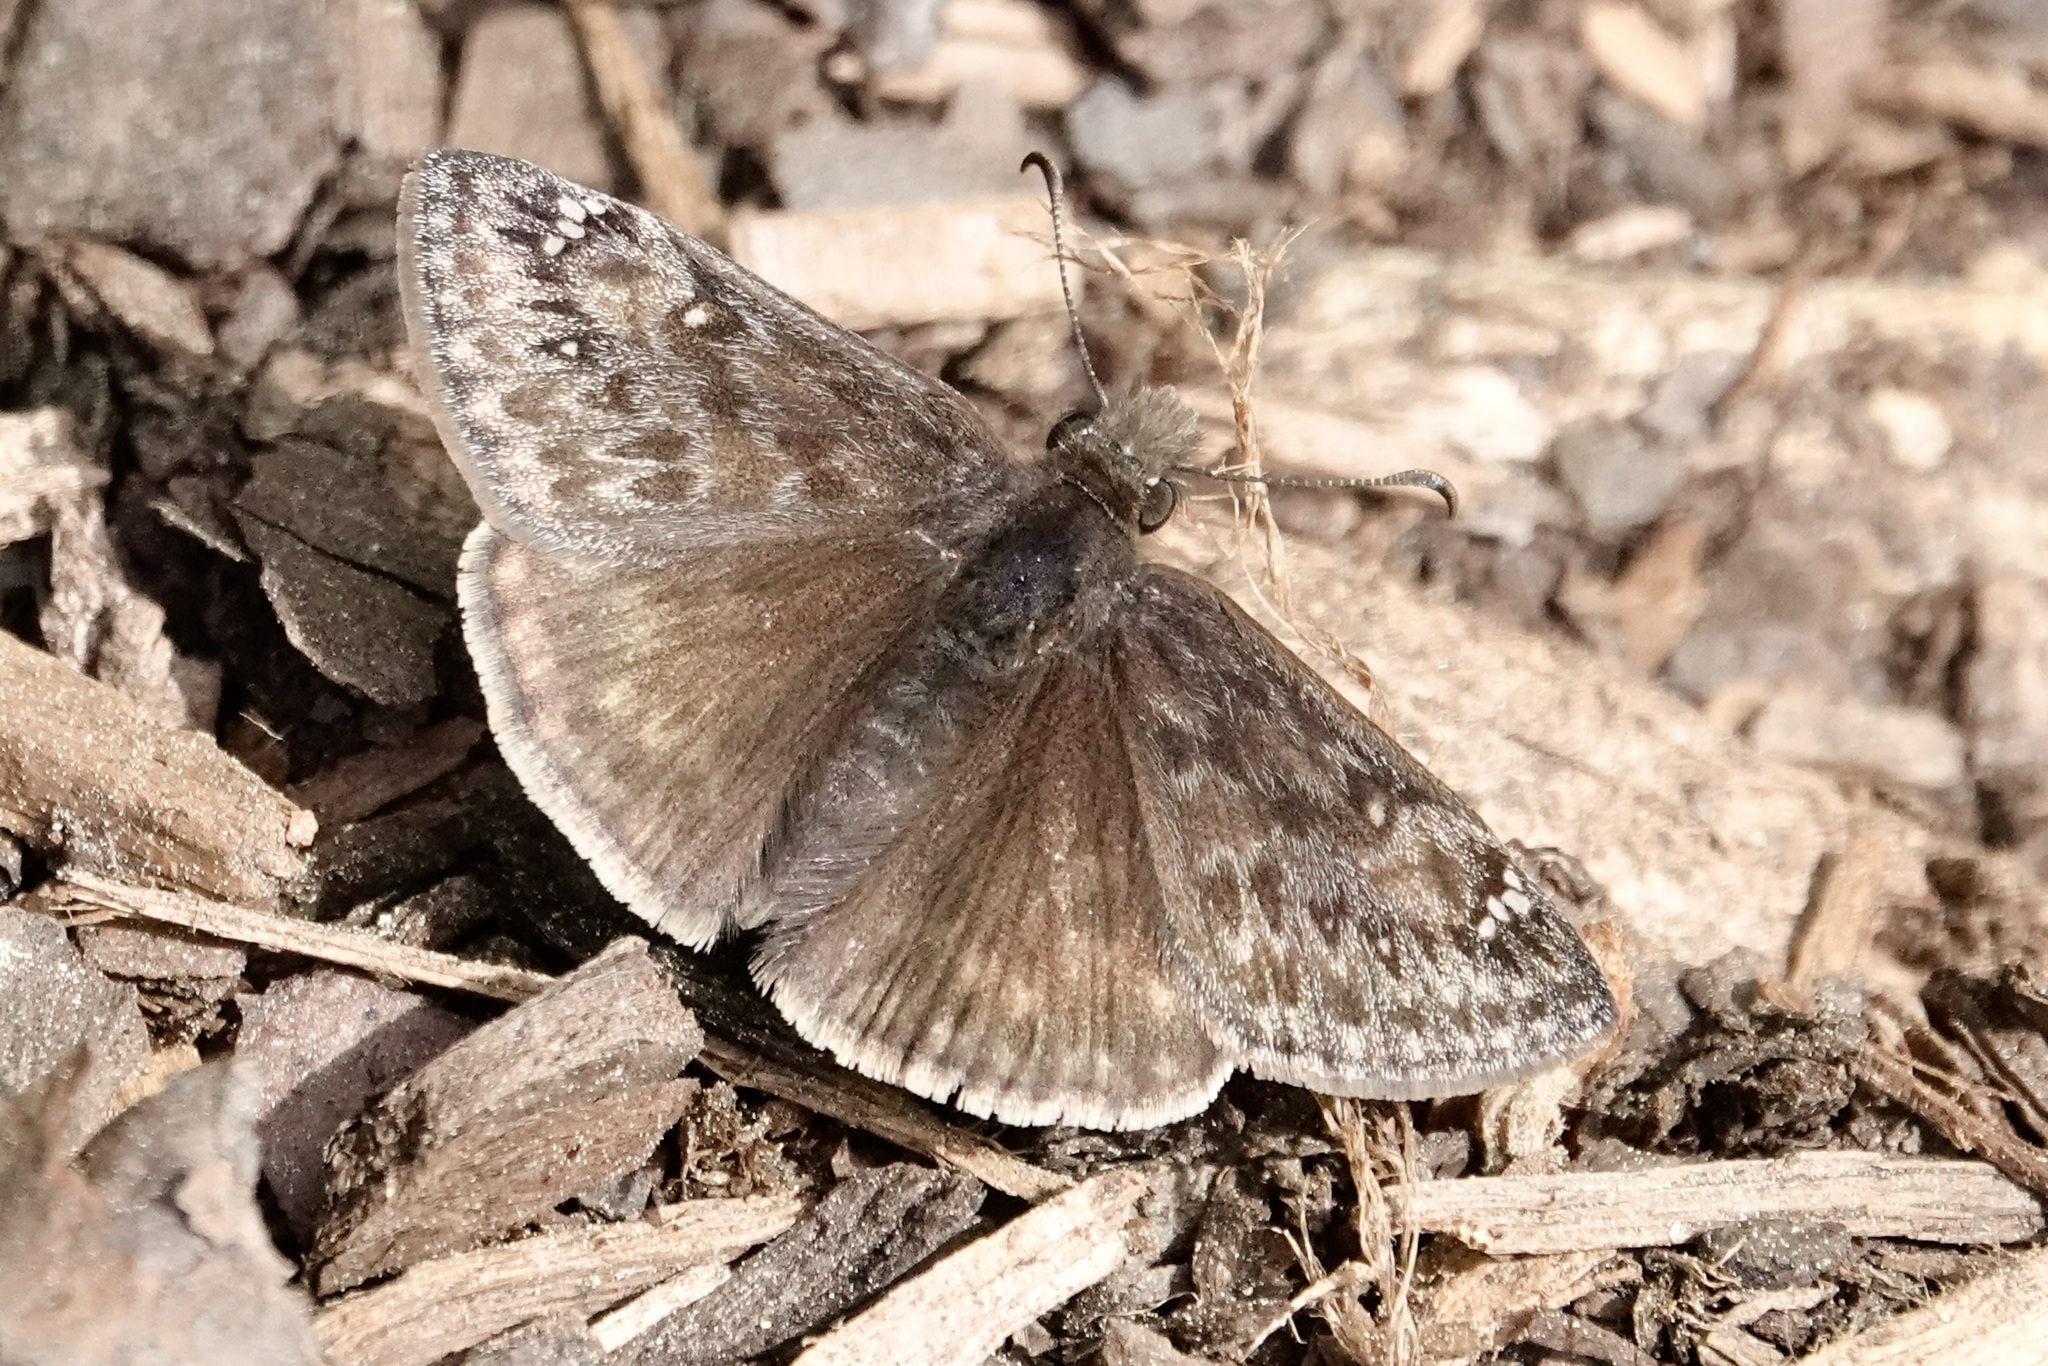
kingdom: Animalia
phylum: Arthropoda
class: Insecta
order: Lepidoptera
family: Hesperiidae
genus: Erynnis
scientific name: Erynnis juvenalis
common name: Juvenal's duskywing
